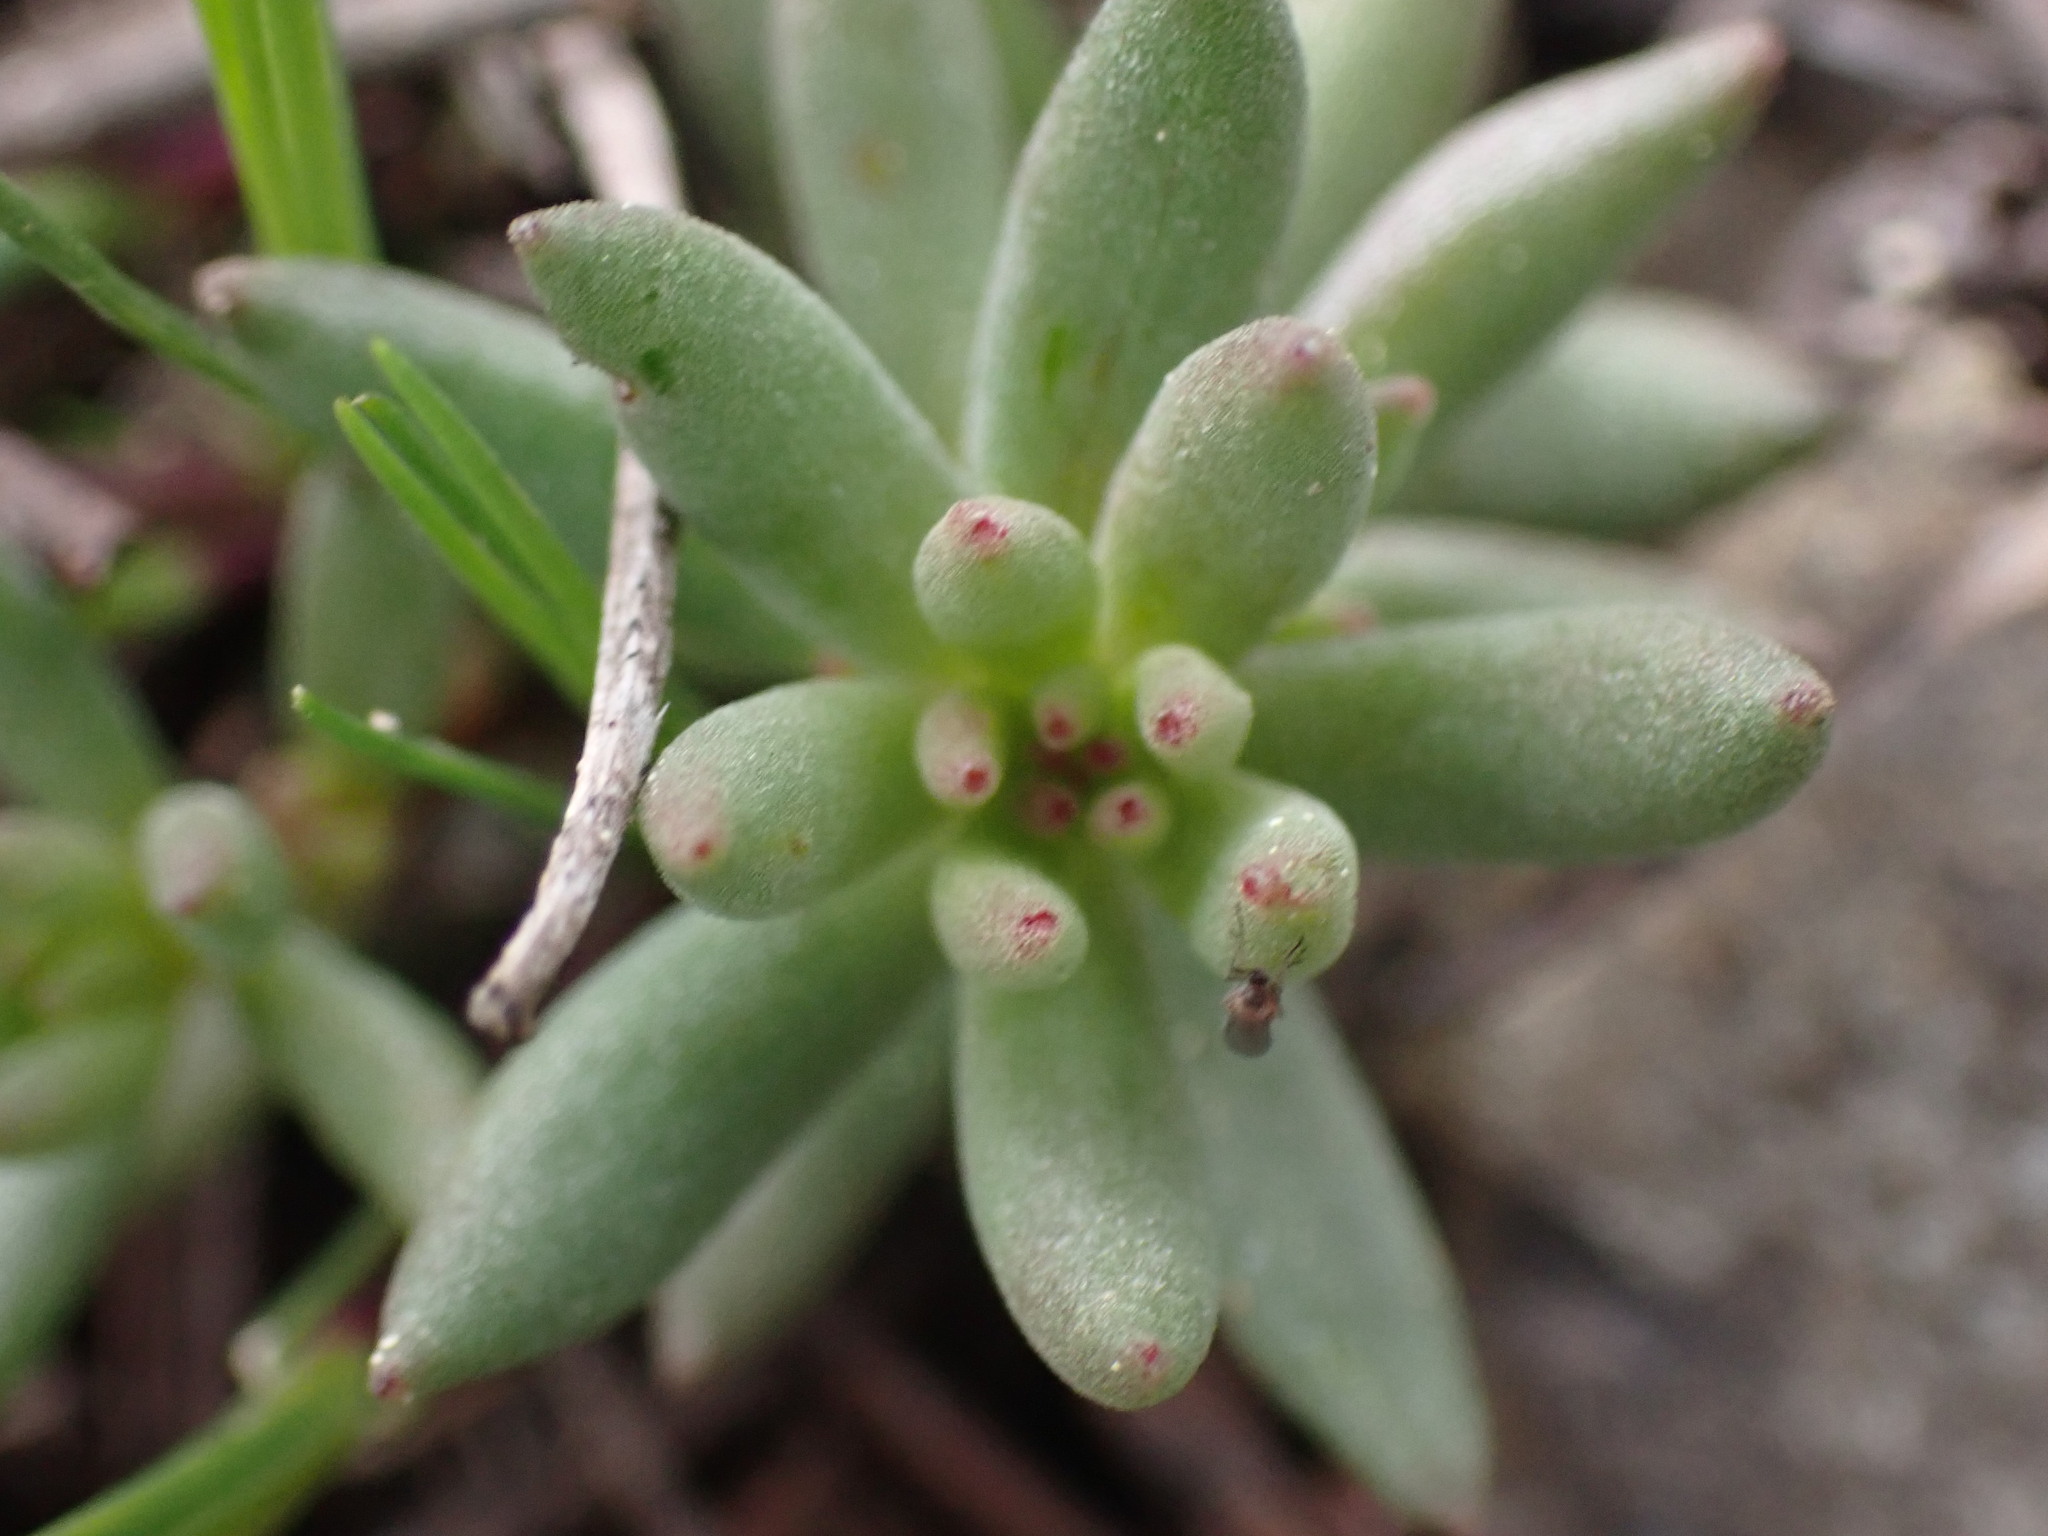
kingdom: Plantae
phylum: Tracheophyta
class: Magnoliopsida
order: Saxifragales
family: Crassulaceae
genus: Sedum
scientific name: Sedum lanceolatum
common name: Common stonecrop
